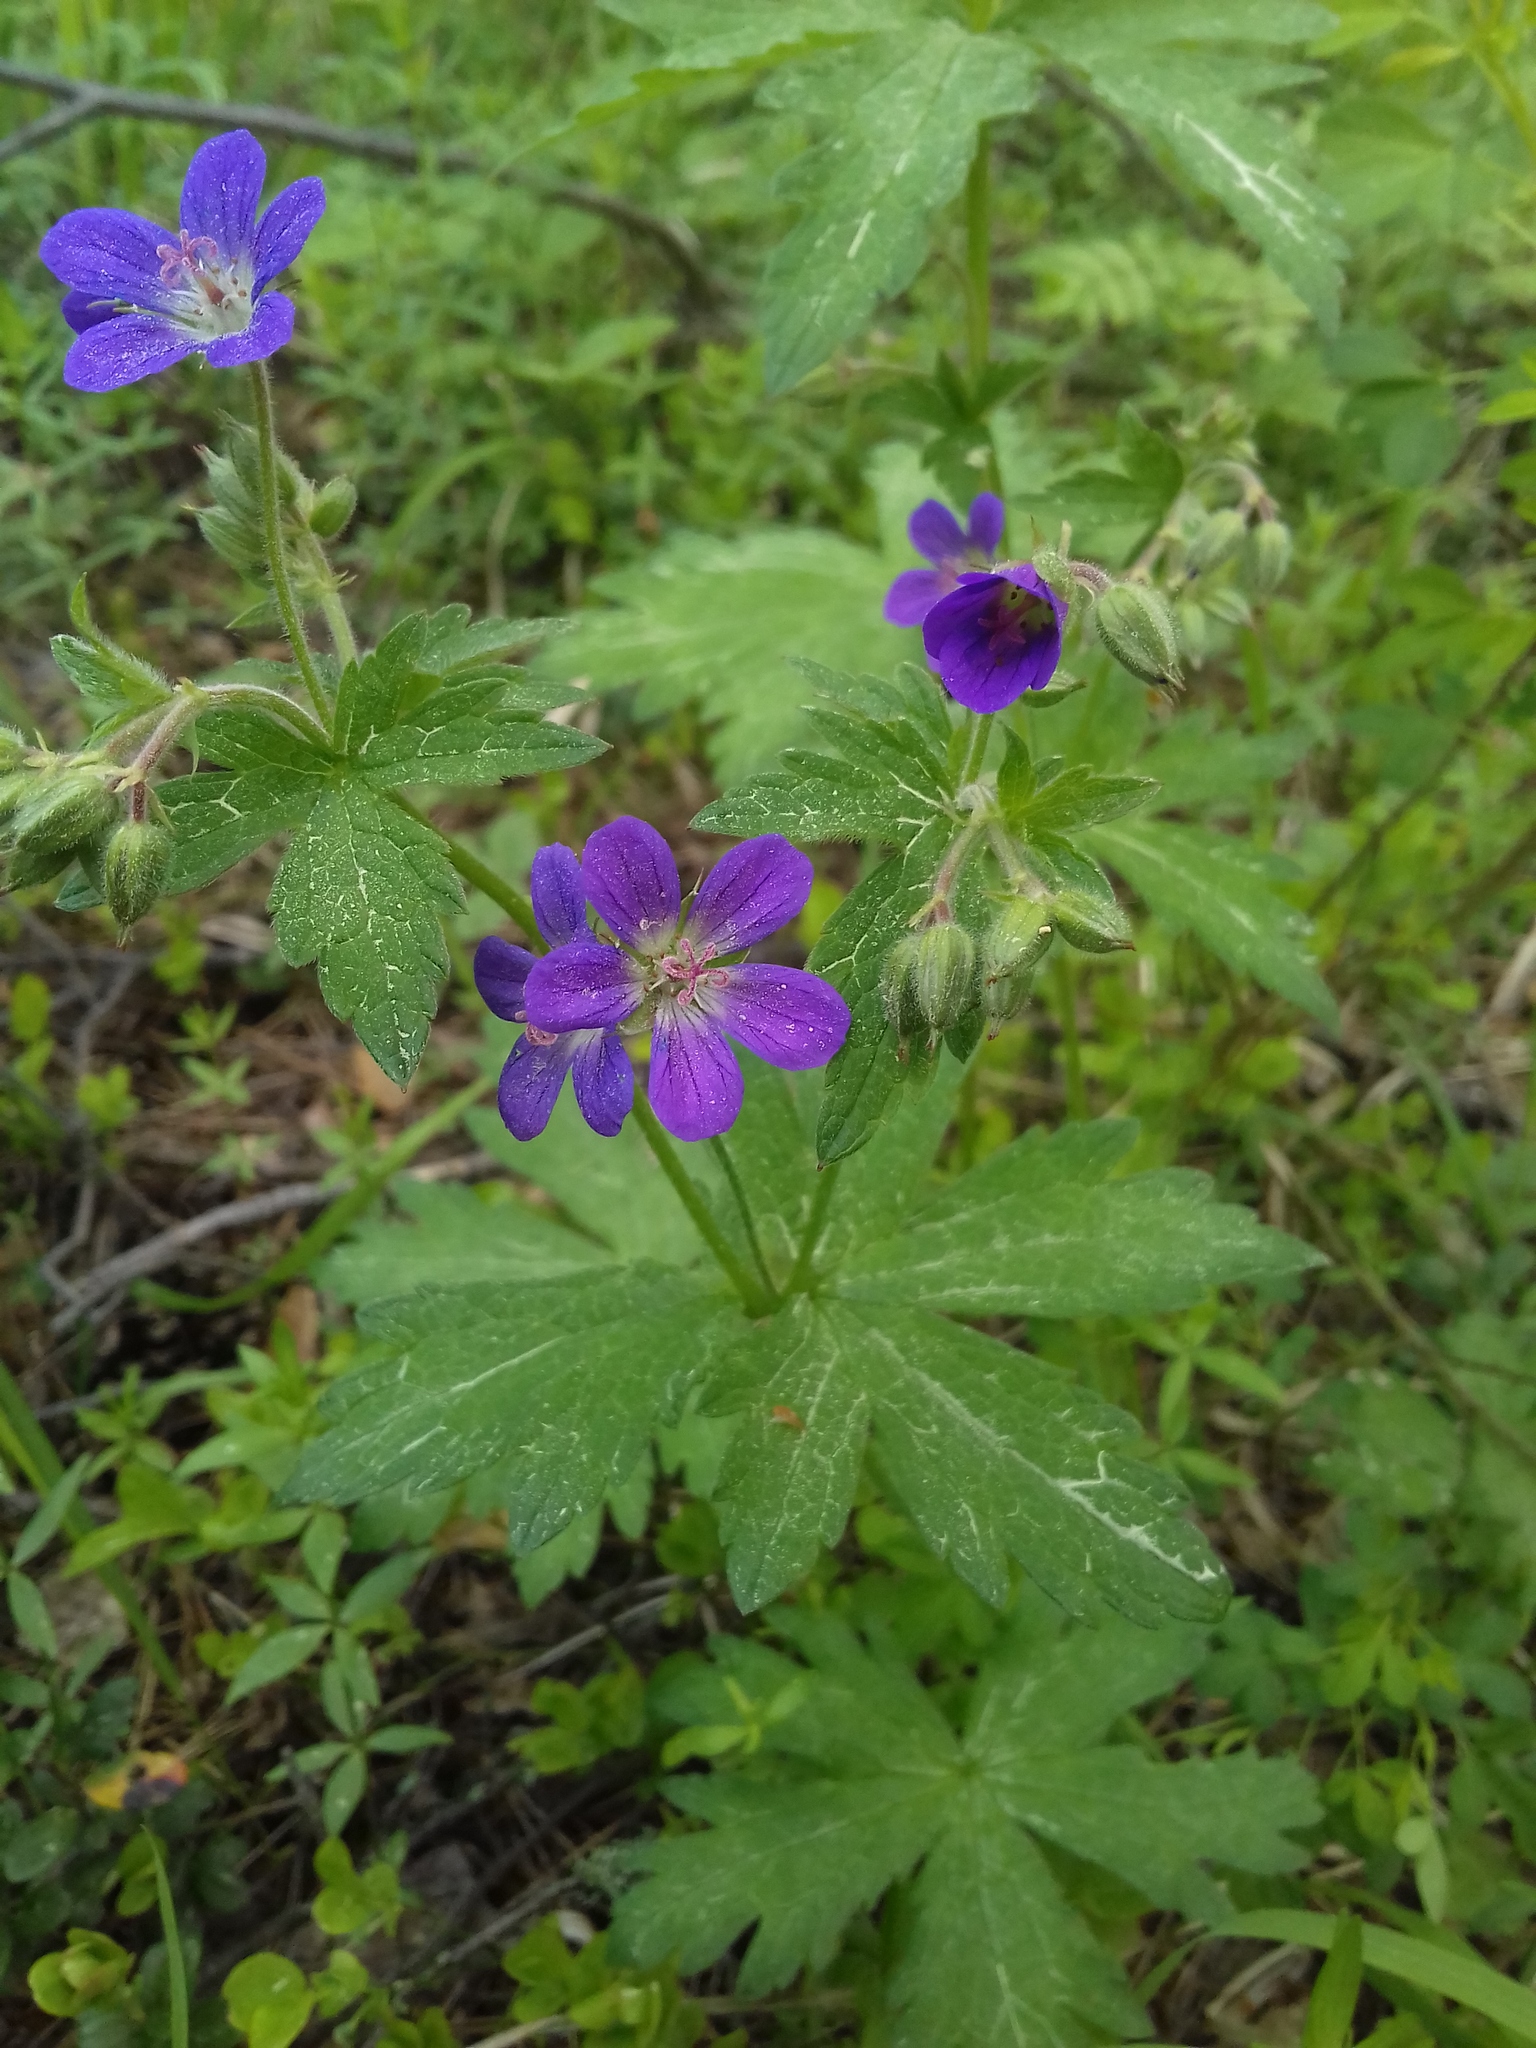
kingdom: Plantae
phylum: Tracheophyta
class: Magnoliopsida
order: Geraniales
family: Geraniaceae
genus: Geranium
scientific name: Geranium sylvaticum
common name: Wood crane's-bill
